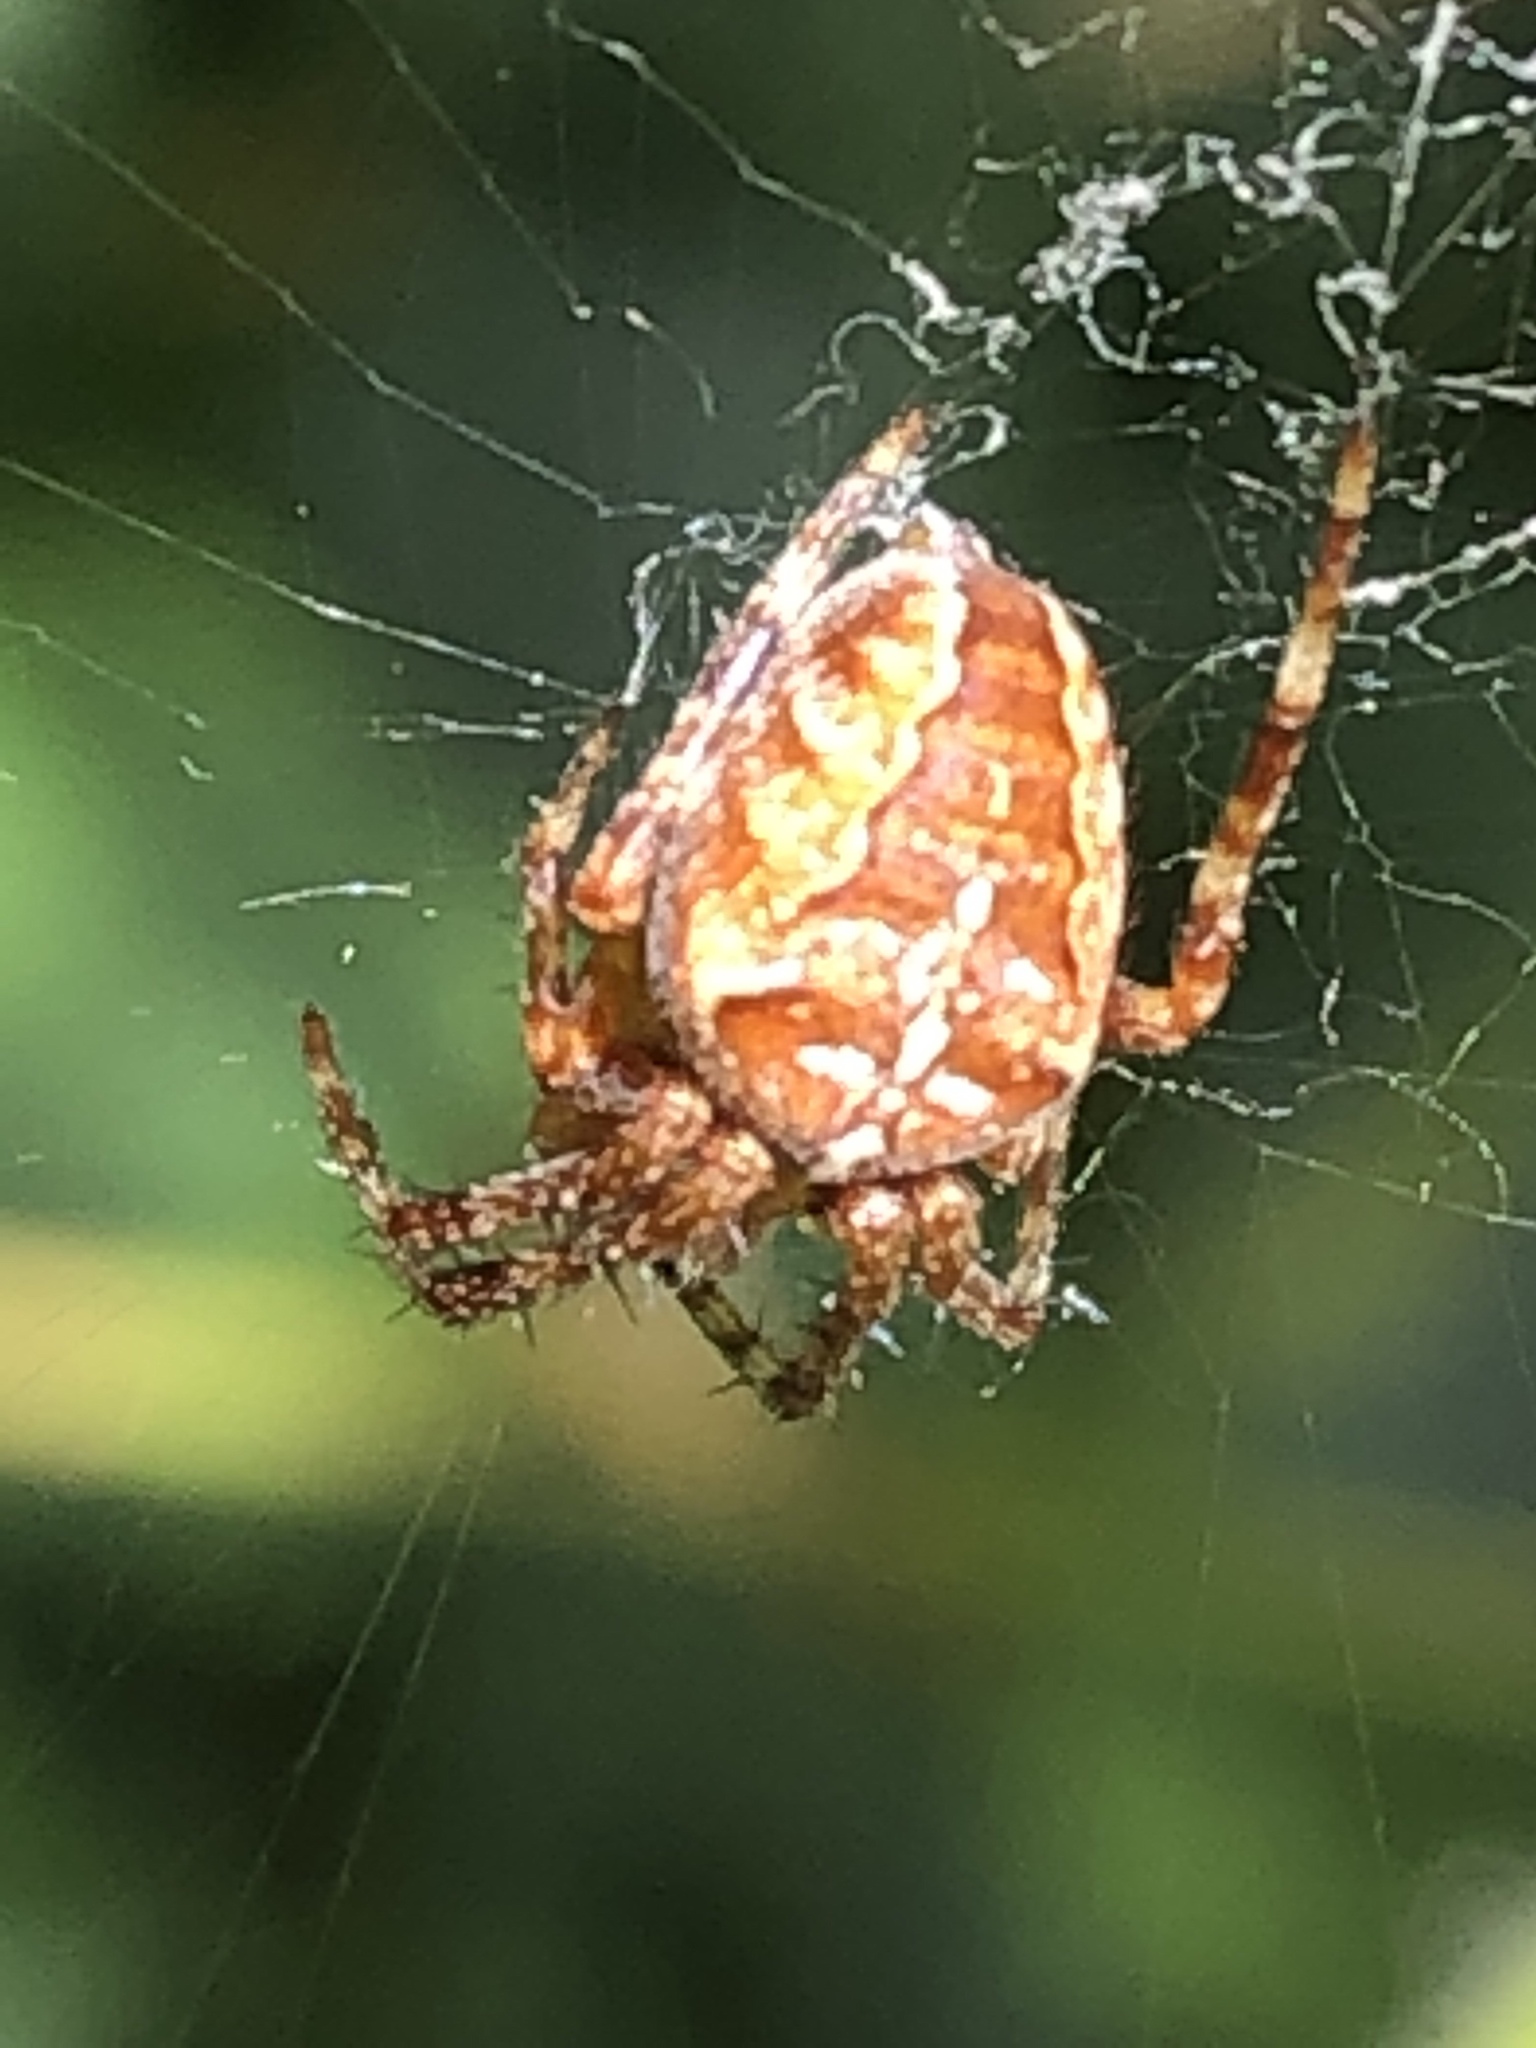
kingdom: Animalia
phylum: Arthropoda
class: Arachnida
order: Araneae
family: Araneidae
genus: Araneus
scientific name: Araneus diadematus
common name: Cross orbweaver
